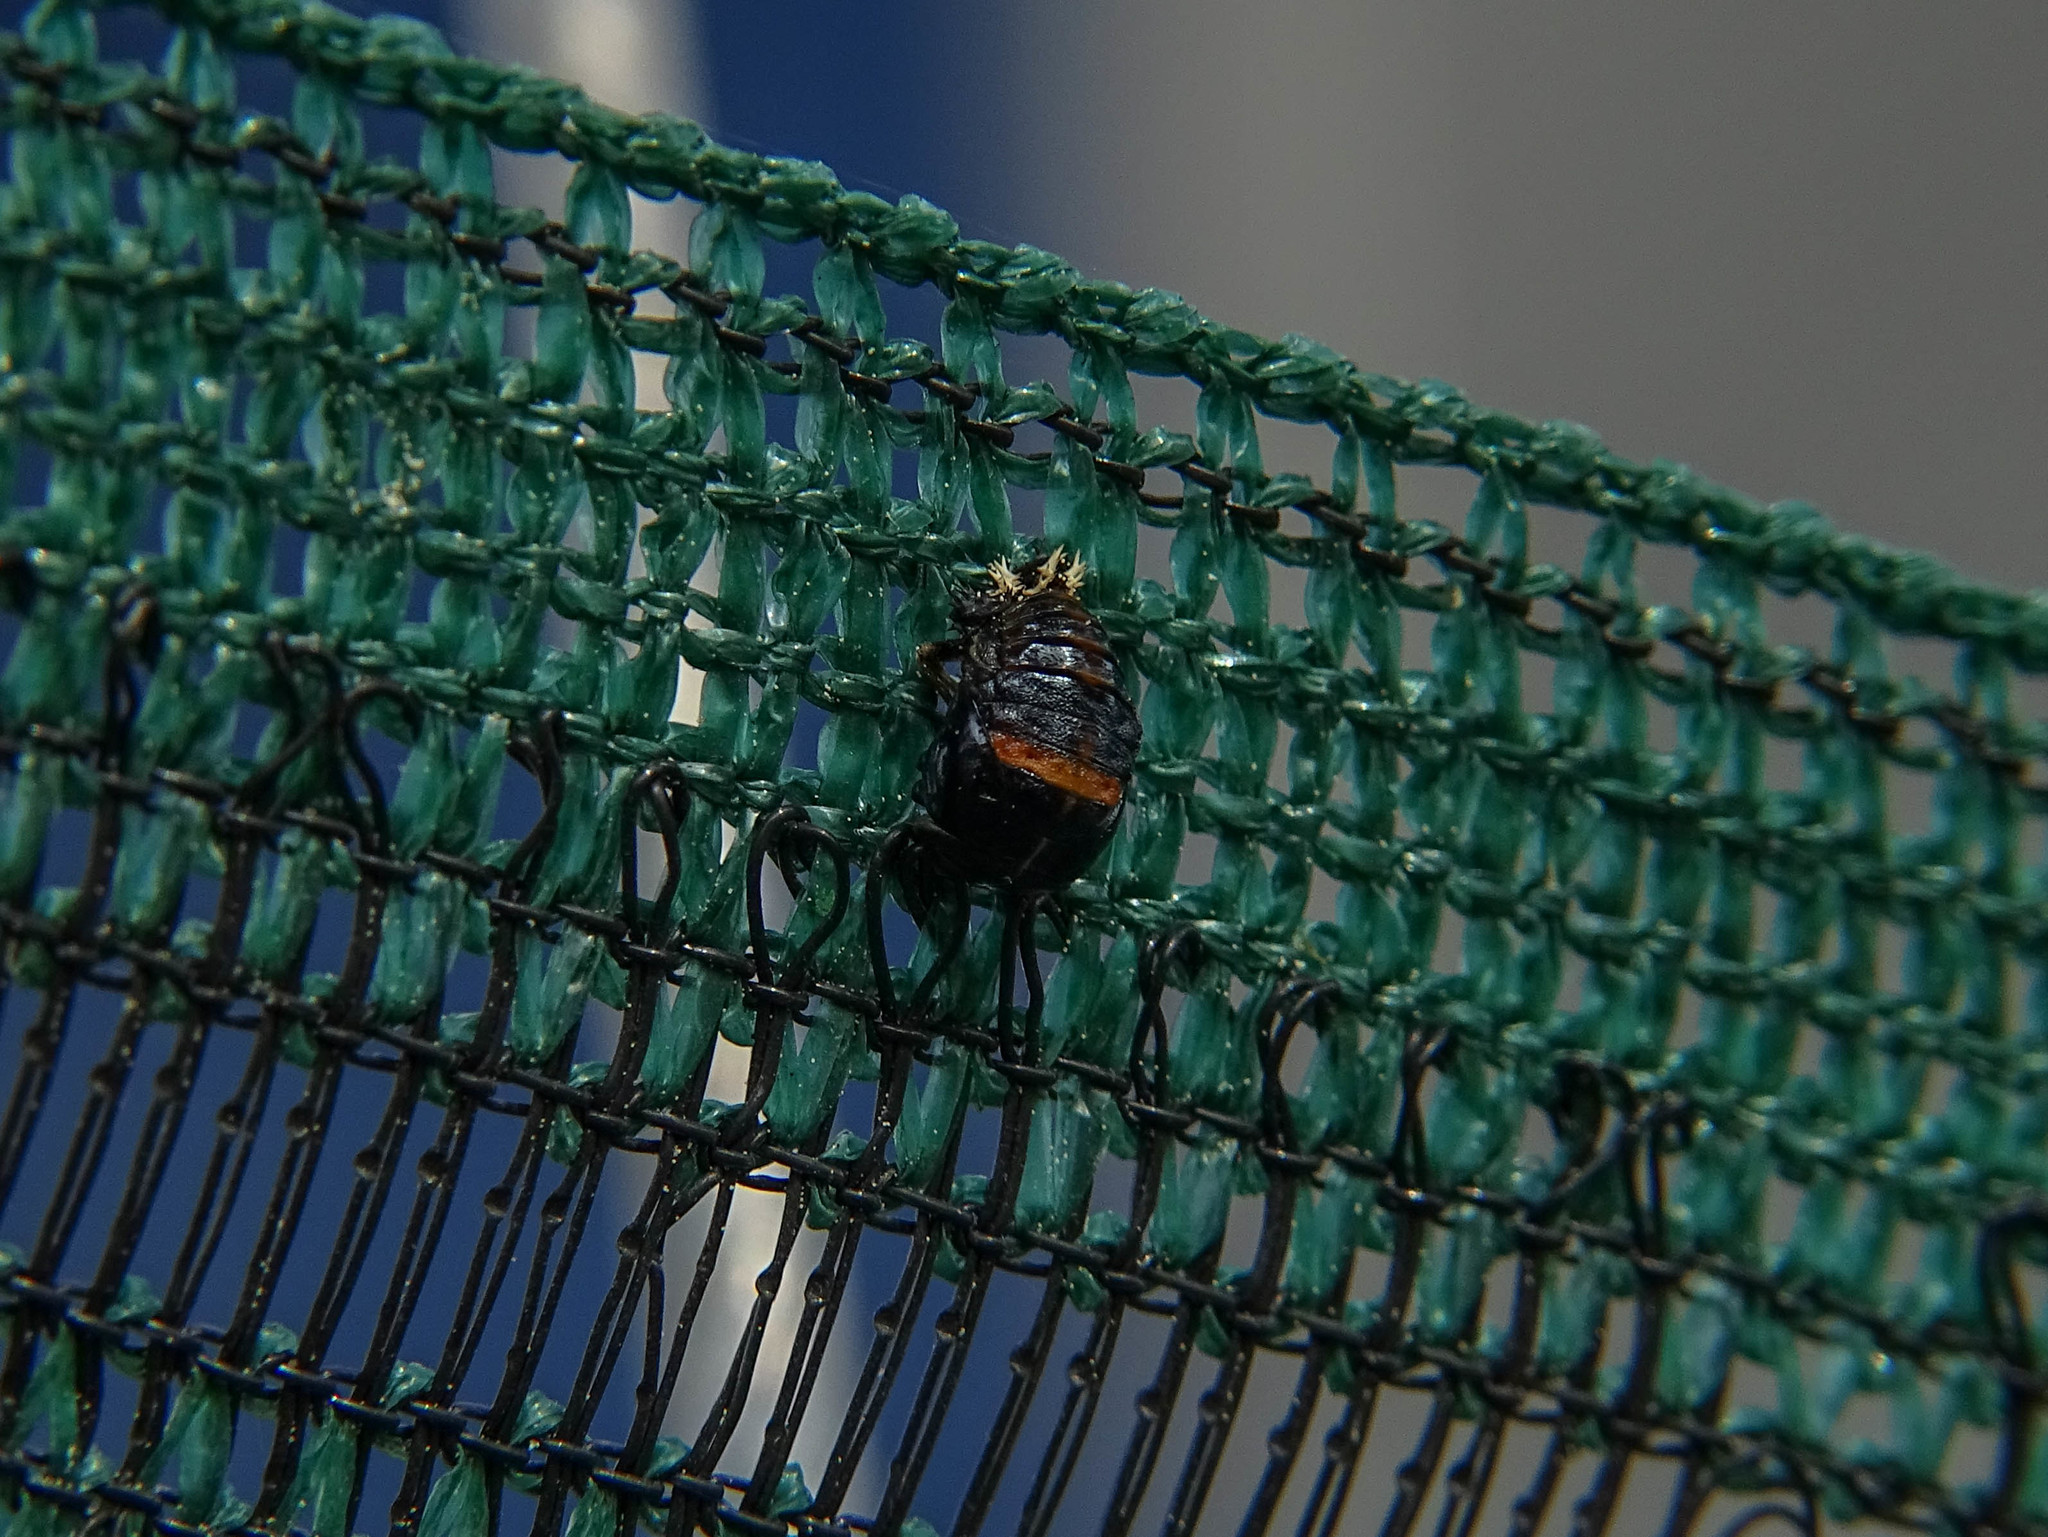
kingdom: Animalia
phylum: Arthropoda
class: Insecta
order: Coleoptera
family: Coccinellidae
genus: Harmonia
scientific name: Harmonia axyridis
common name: Harlequin ladybird
